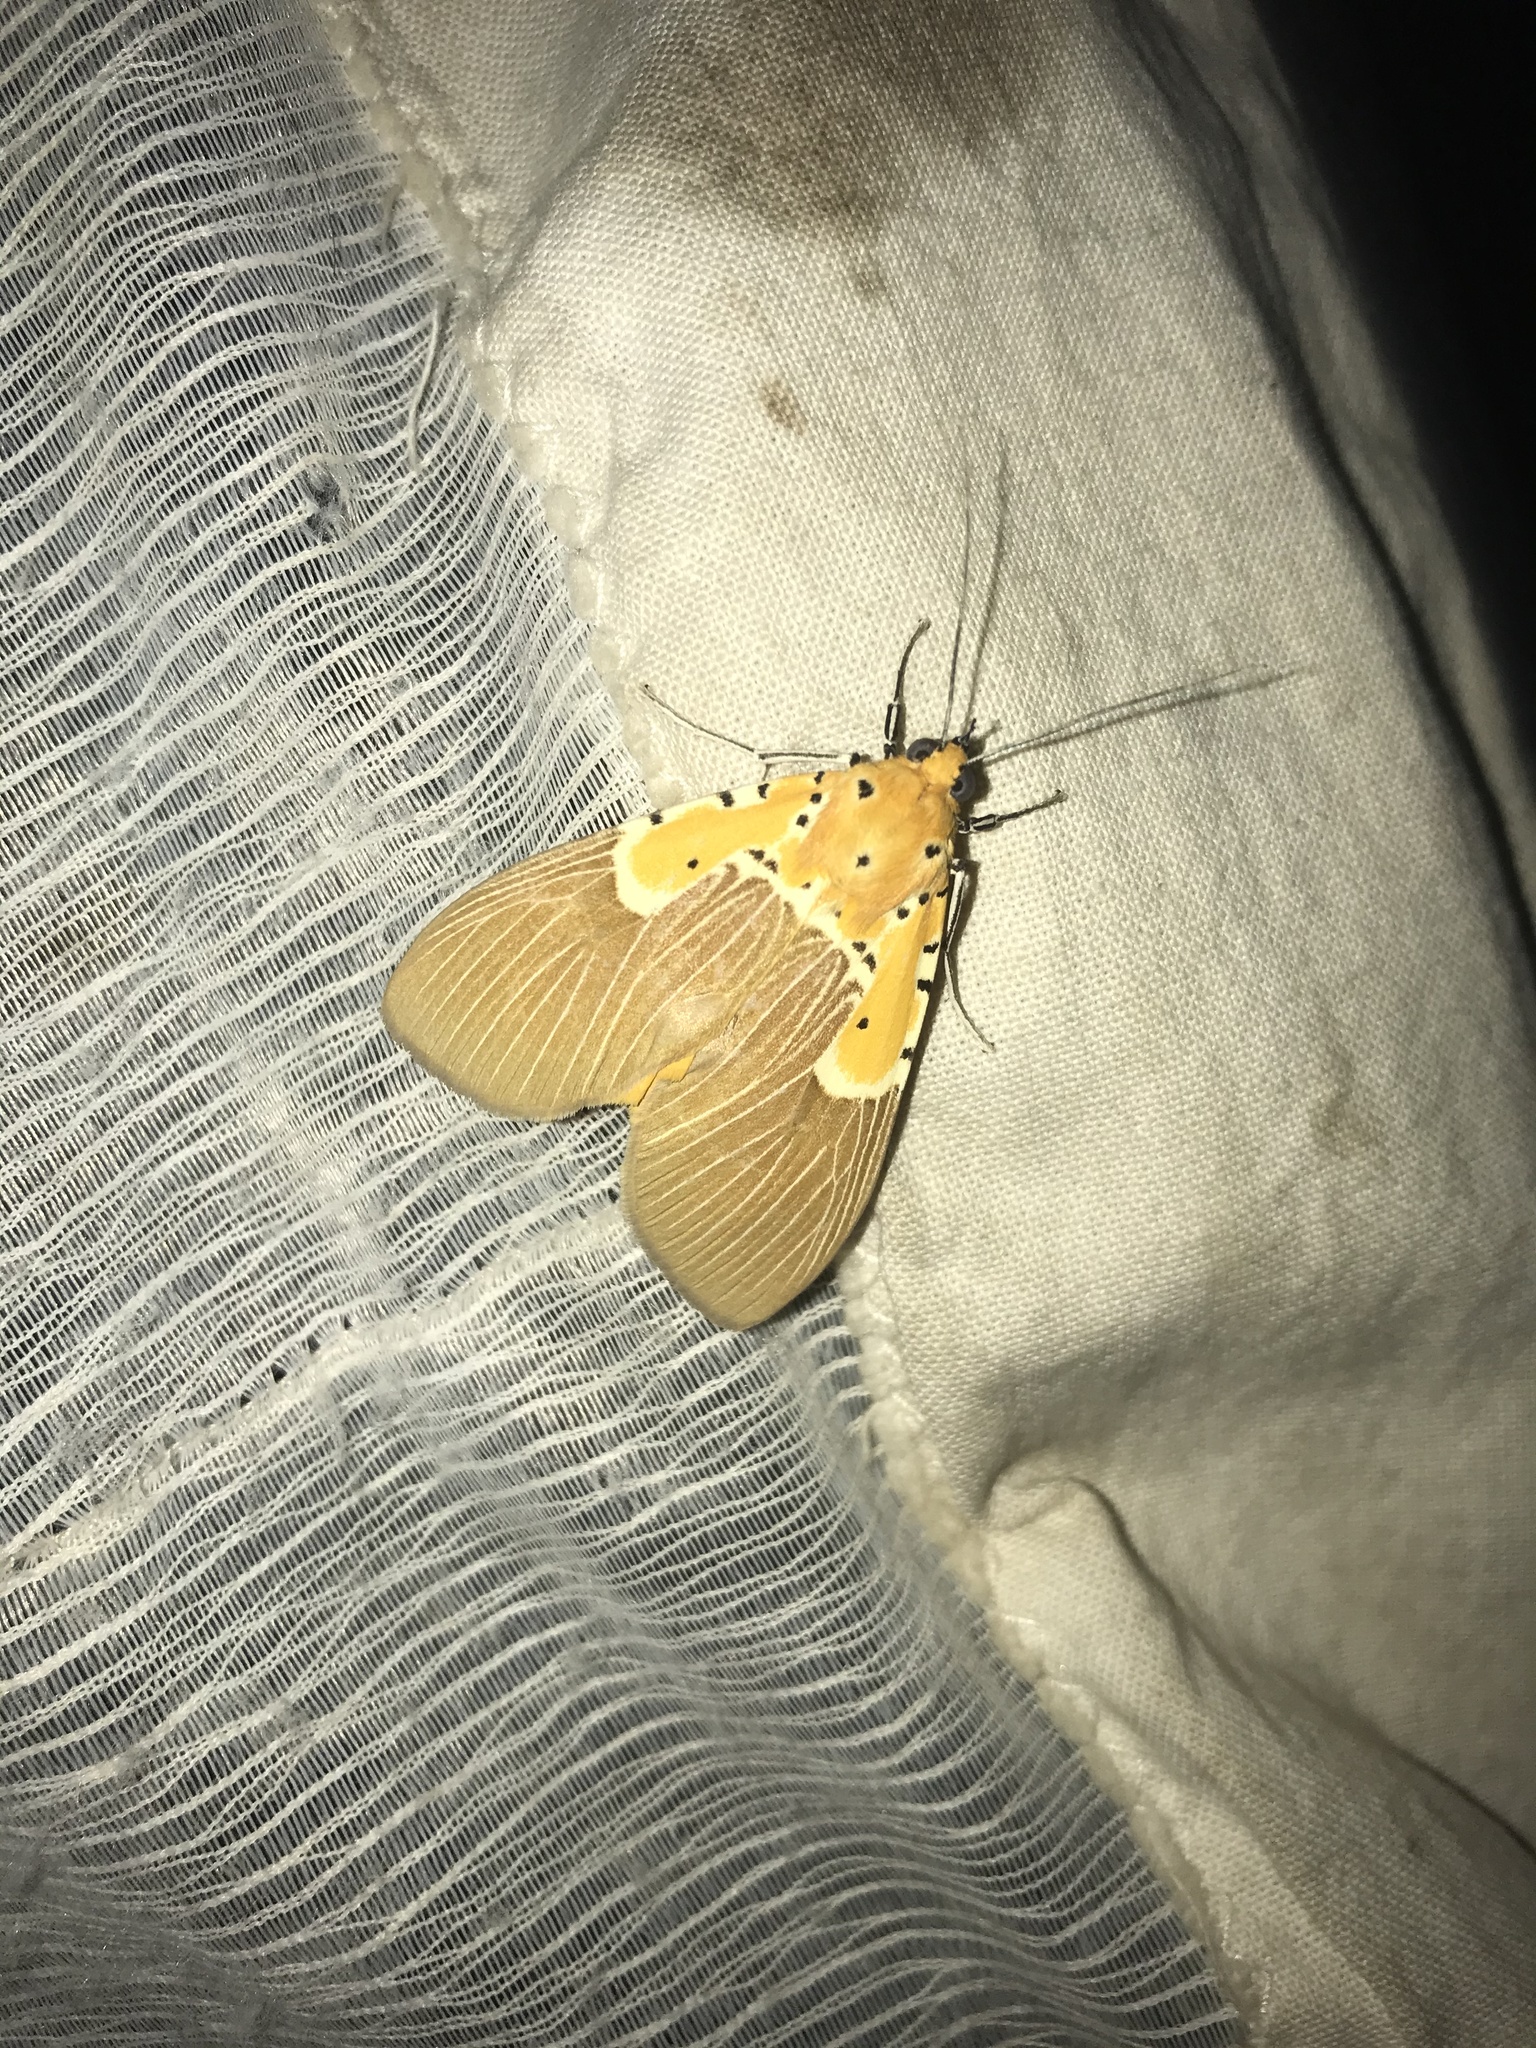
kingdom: Animalia
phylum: Arthropoda
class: Insecta
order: Lepidoptera
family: Erebidae
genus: Asota
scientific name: Asota speciosa
